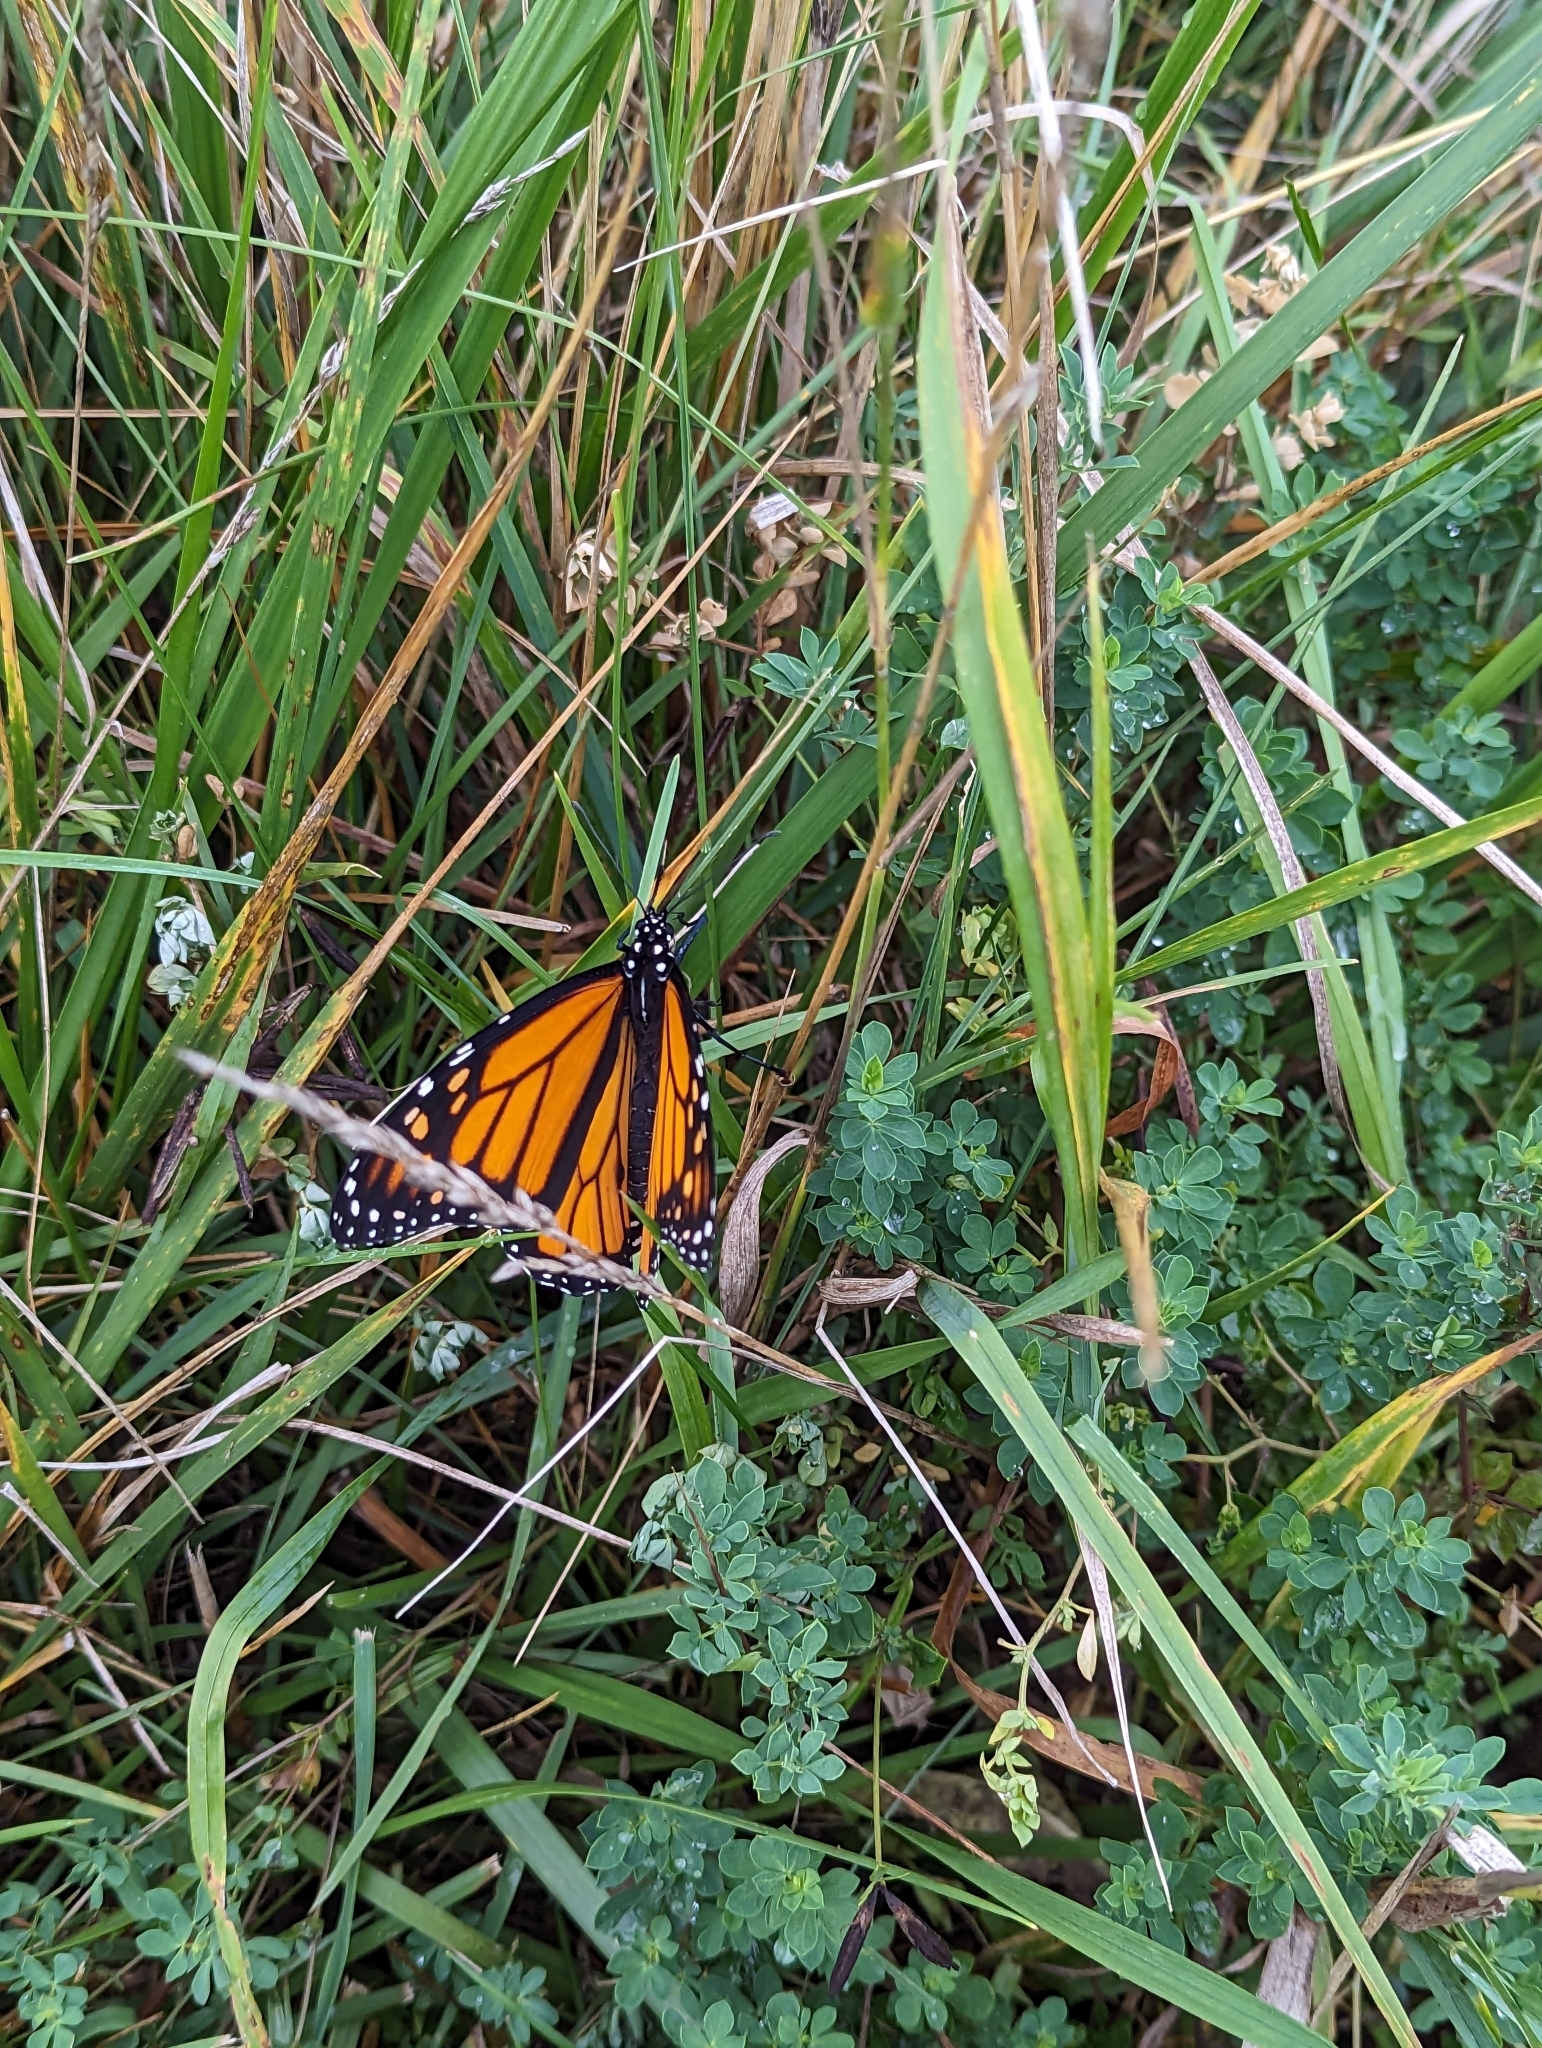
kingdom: Animalia
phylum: Arthropoda
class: Insecta
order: Lepidoptera
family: Nymphalidae
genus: Danaus
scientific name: Danaus plexippus
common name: Monarch
